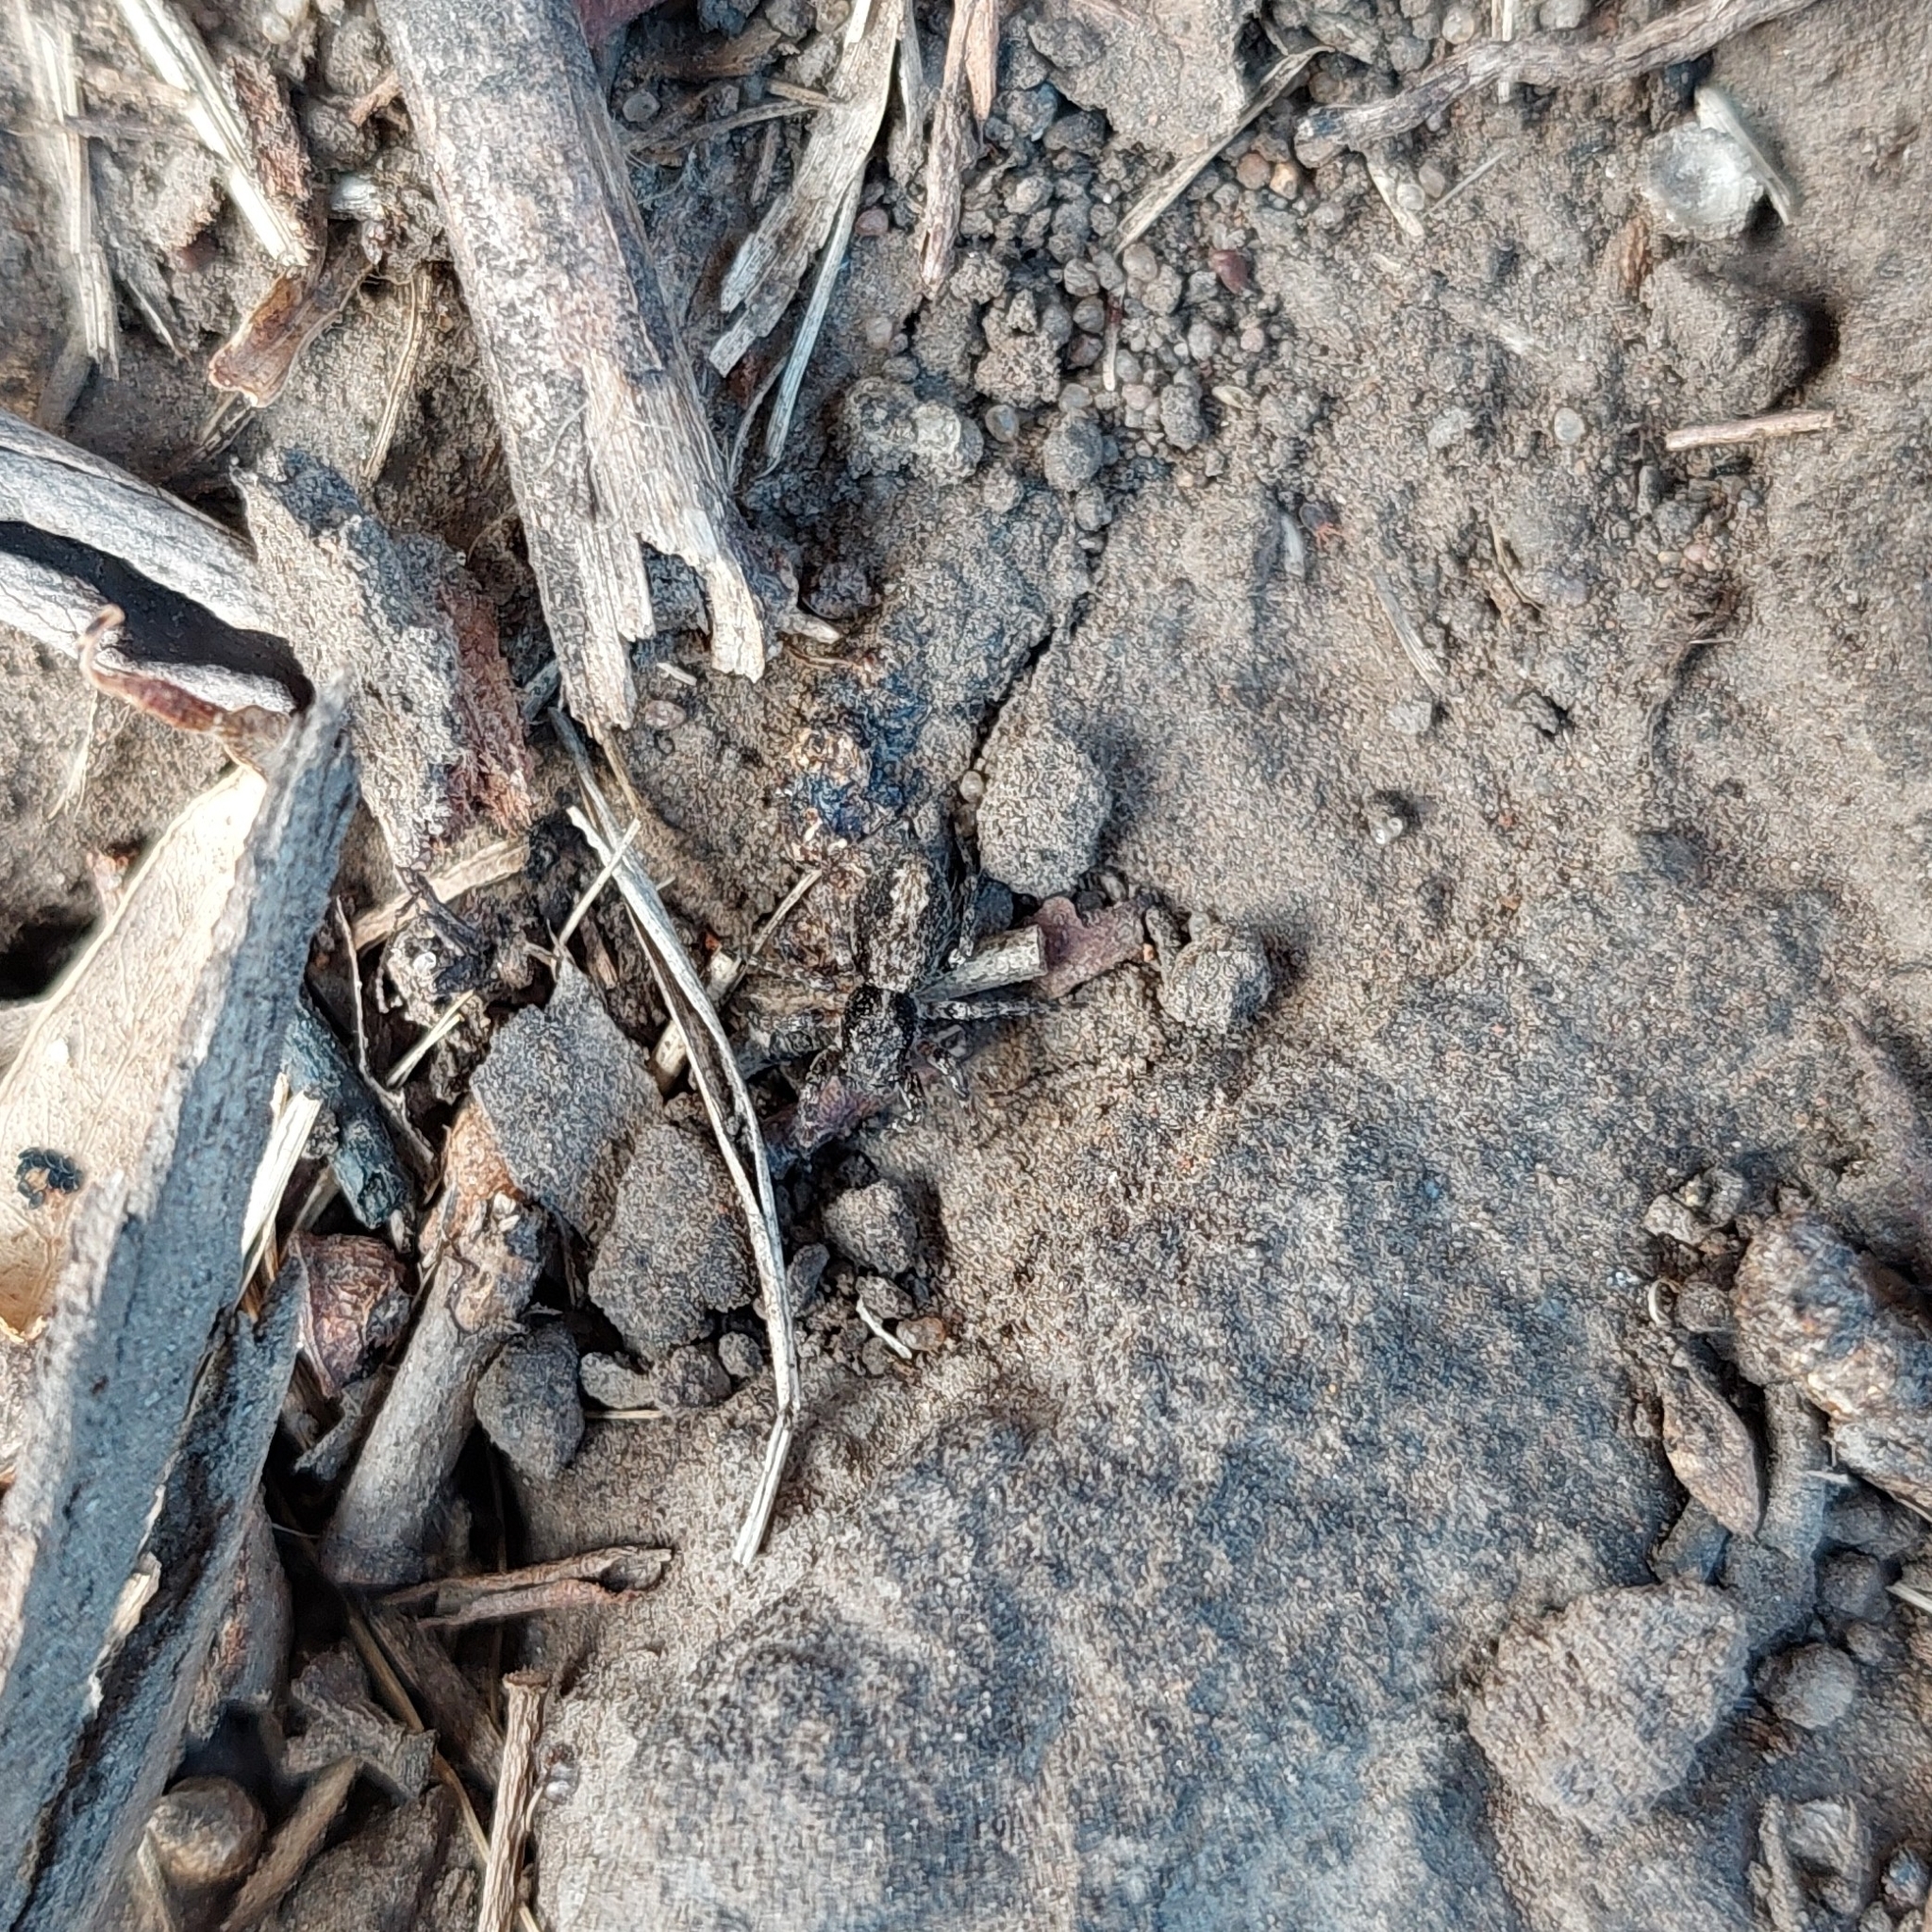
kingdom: Animalia
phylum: Arthropoda
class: Arachnida
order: Araneae
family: Salticidae
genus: Titanattus
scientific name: Titanattus andinus
